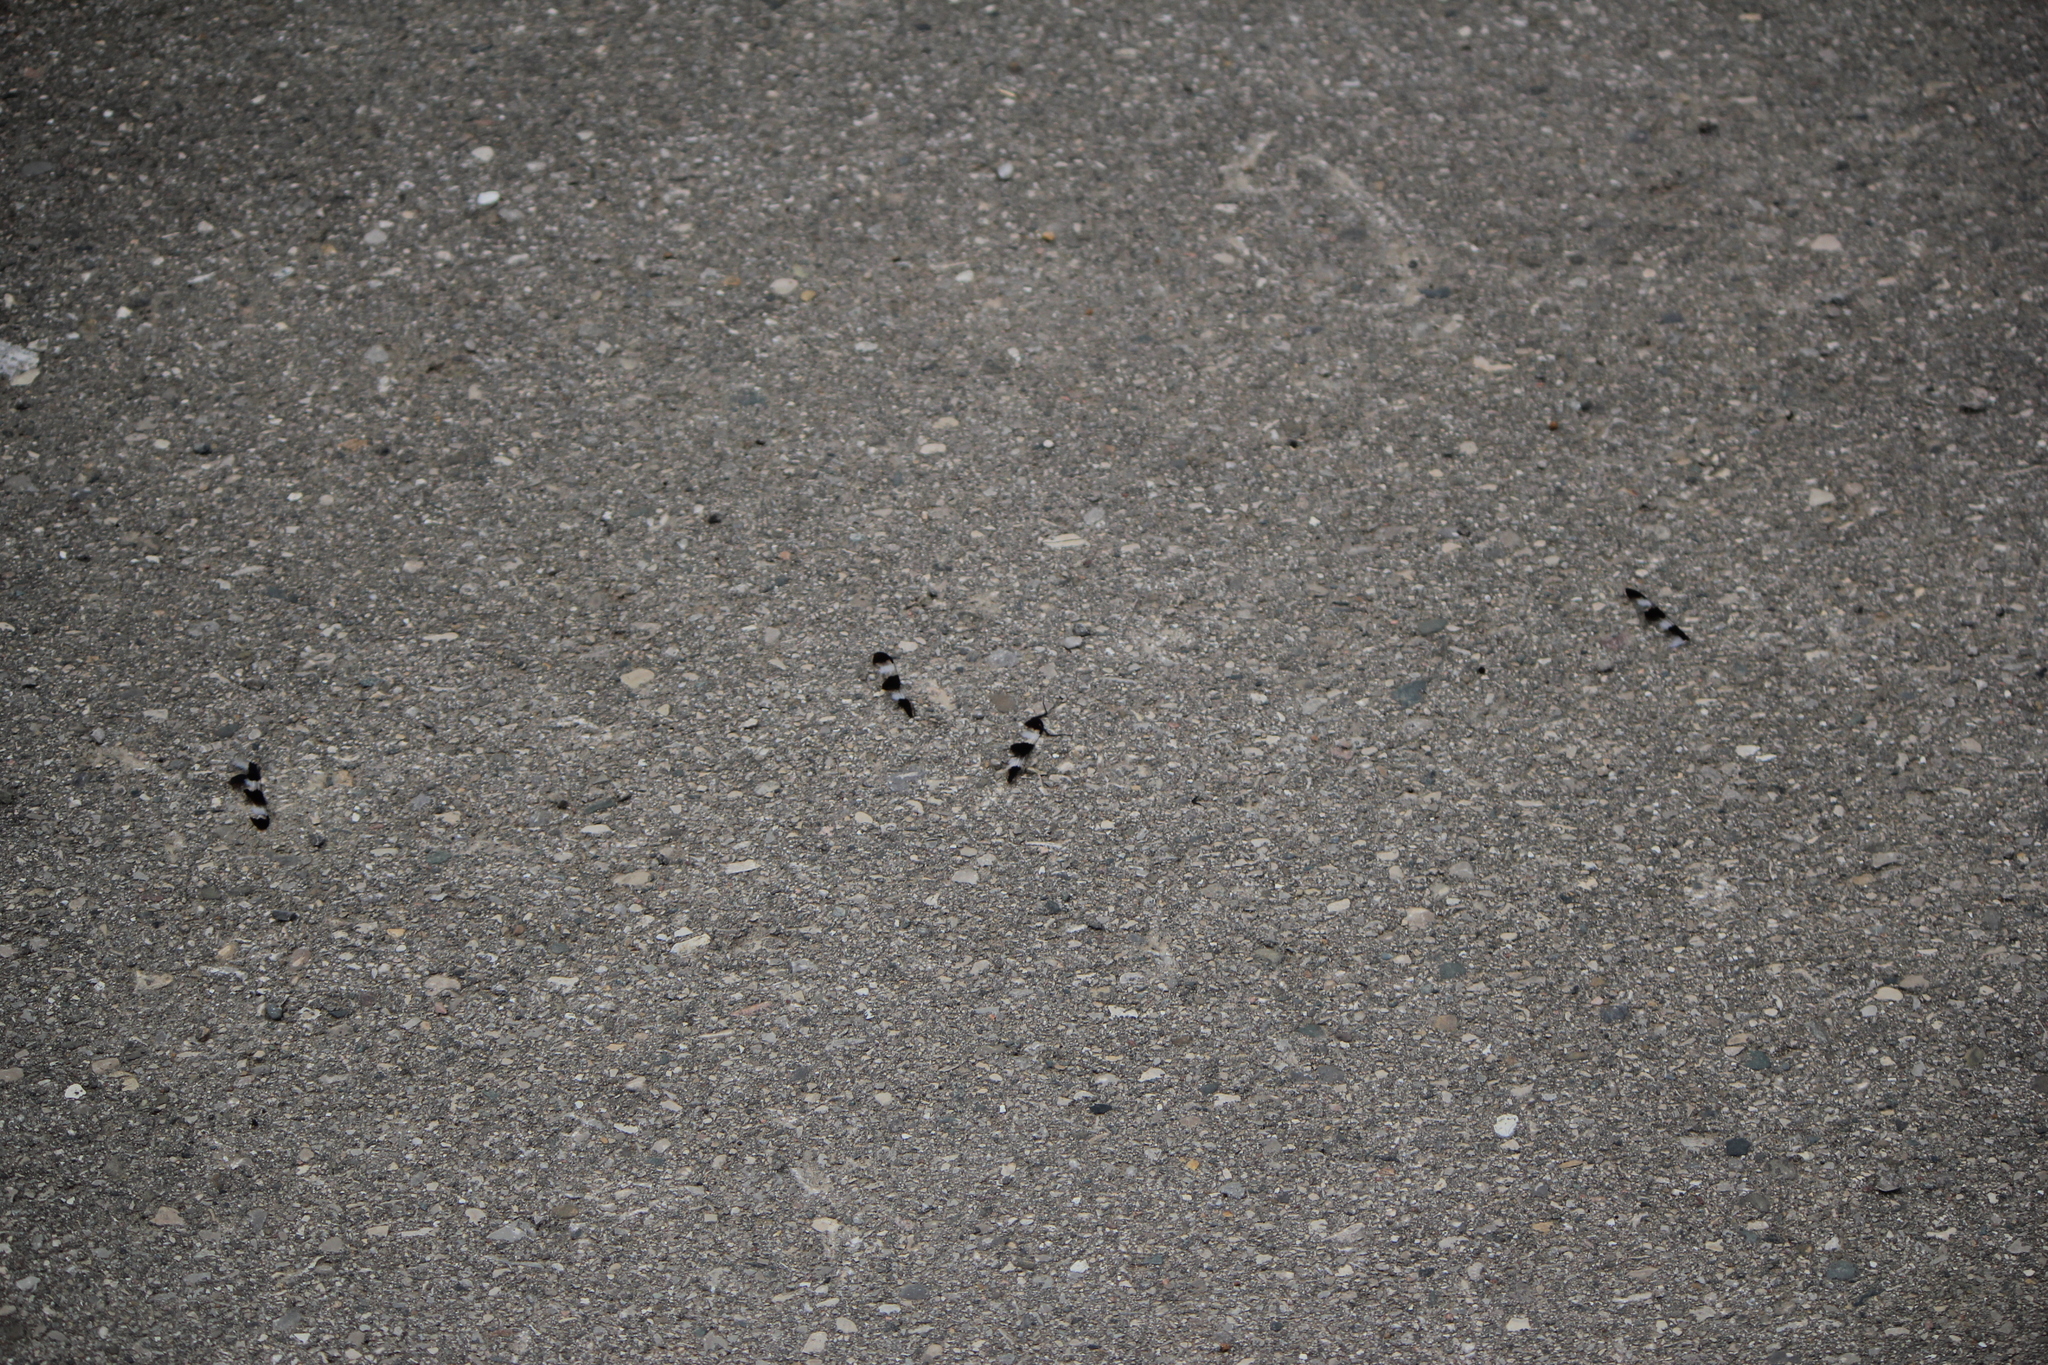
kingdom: Animalia
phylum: Arthropoda
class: Insecta
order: Odonata
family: Libellulidae
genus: Libellula
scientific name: Libellula pulchella
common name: Twelve-spotted skimmer
